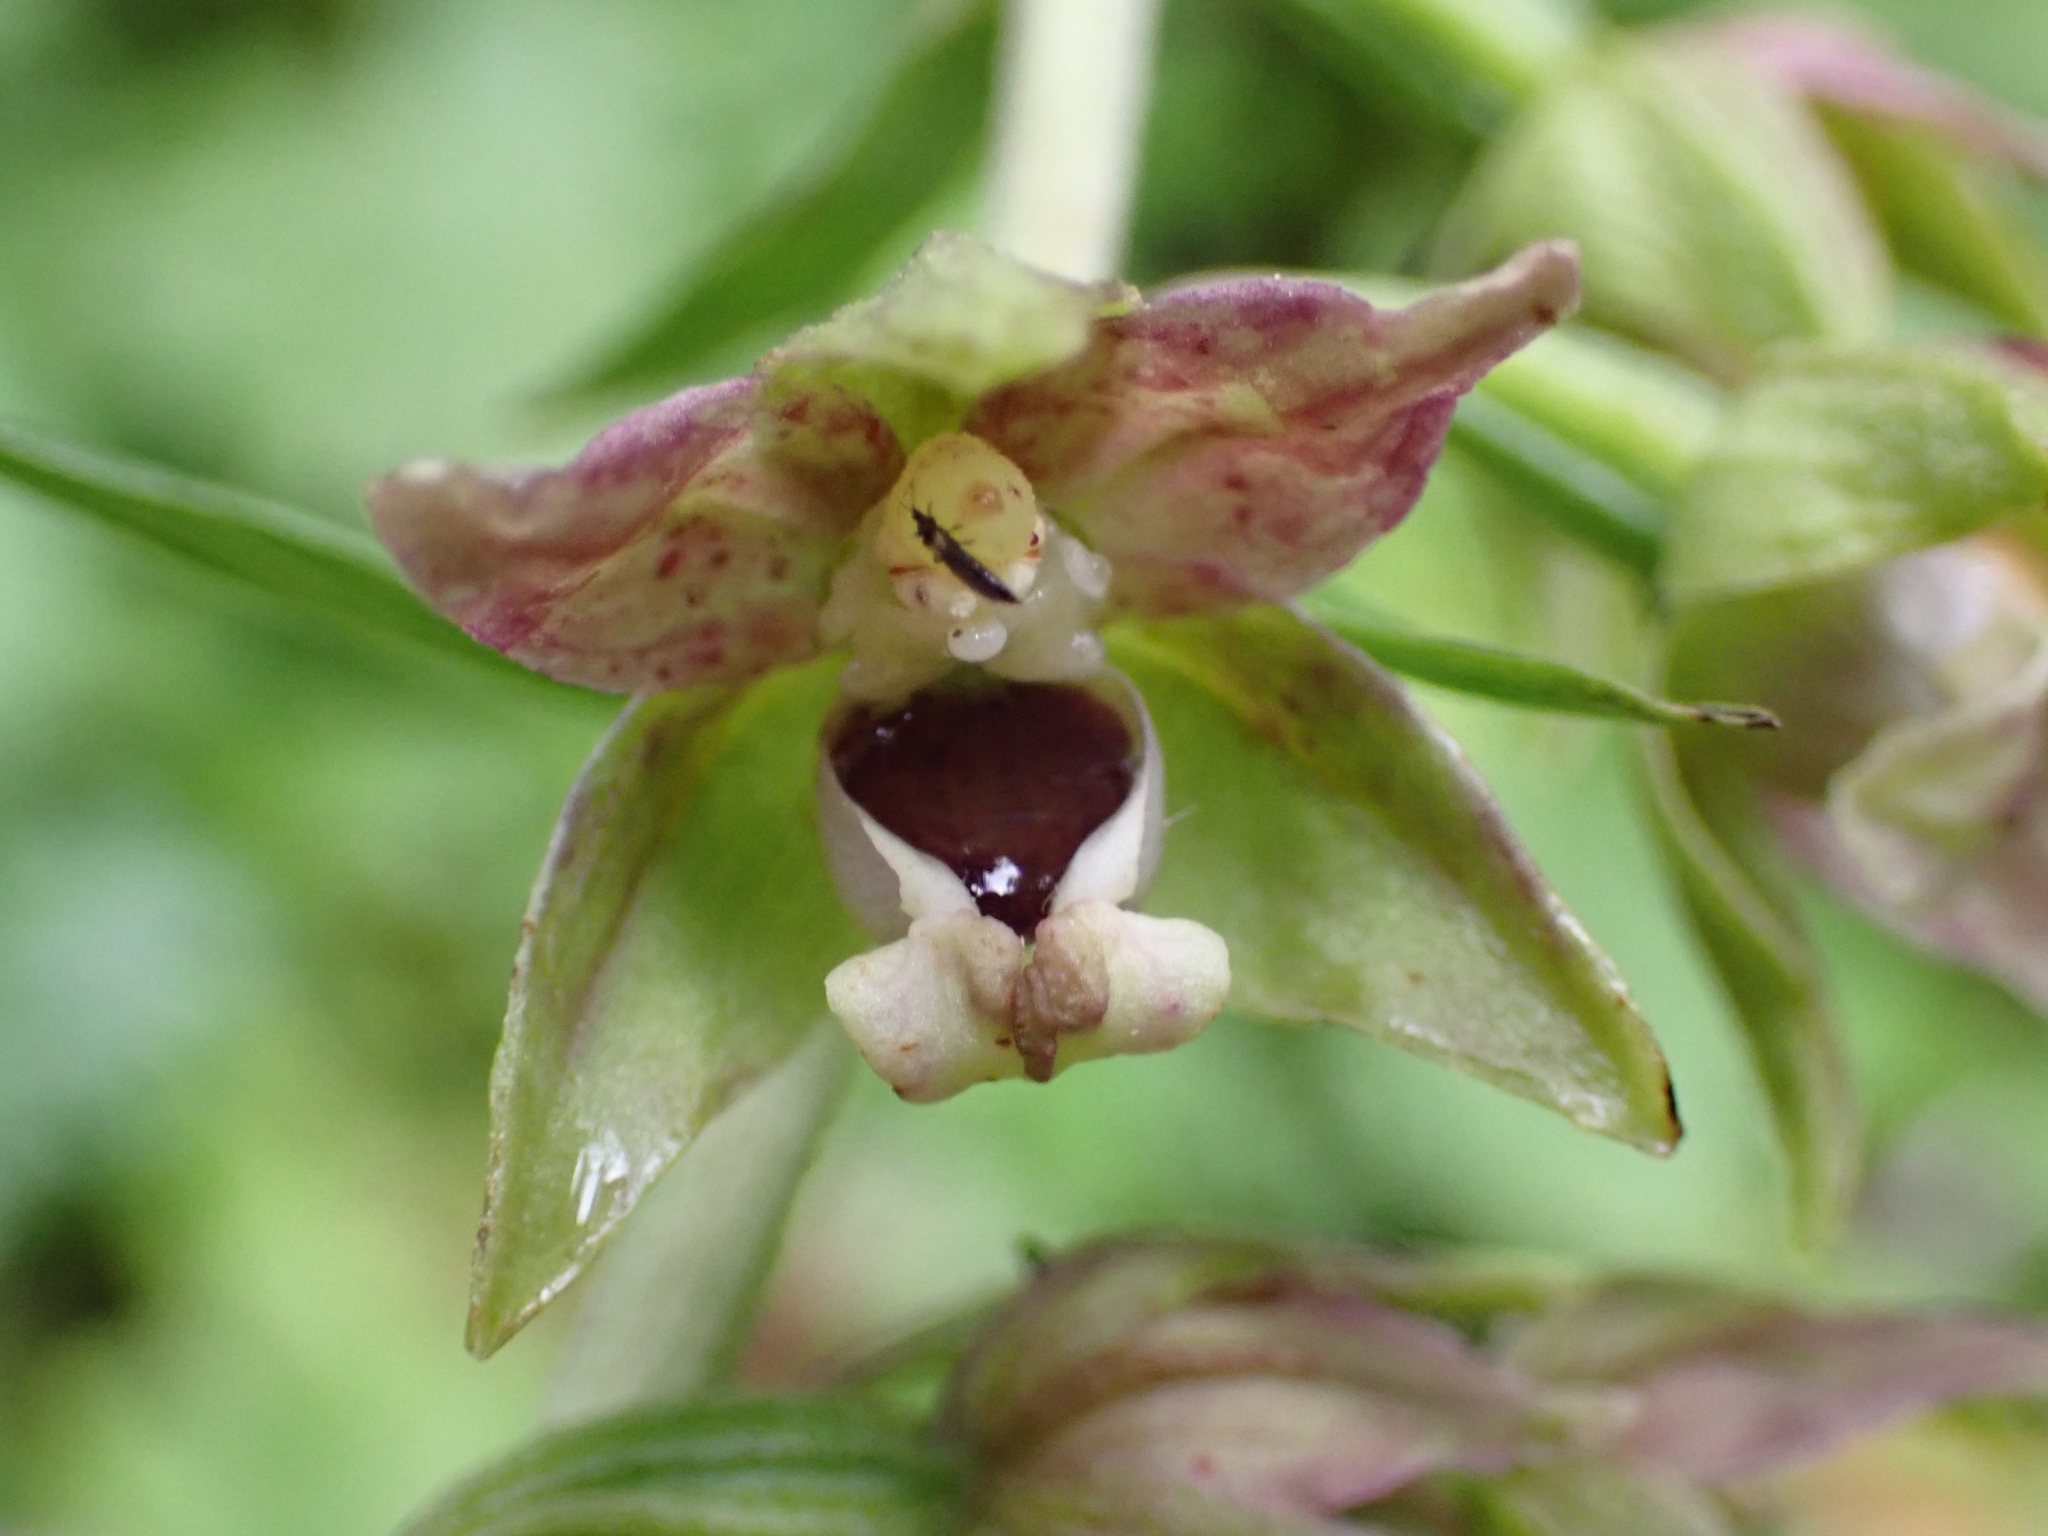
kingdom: Plantae
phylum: Tracheophyta
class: Liliopsida
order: Asparagales
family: Orchidaceae
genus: Epipactis
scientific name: Epipactis helleborine
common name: Broad-leaved helleborine
